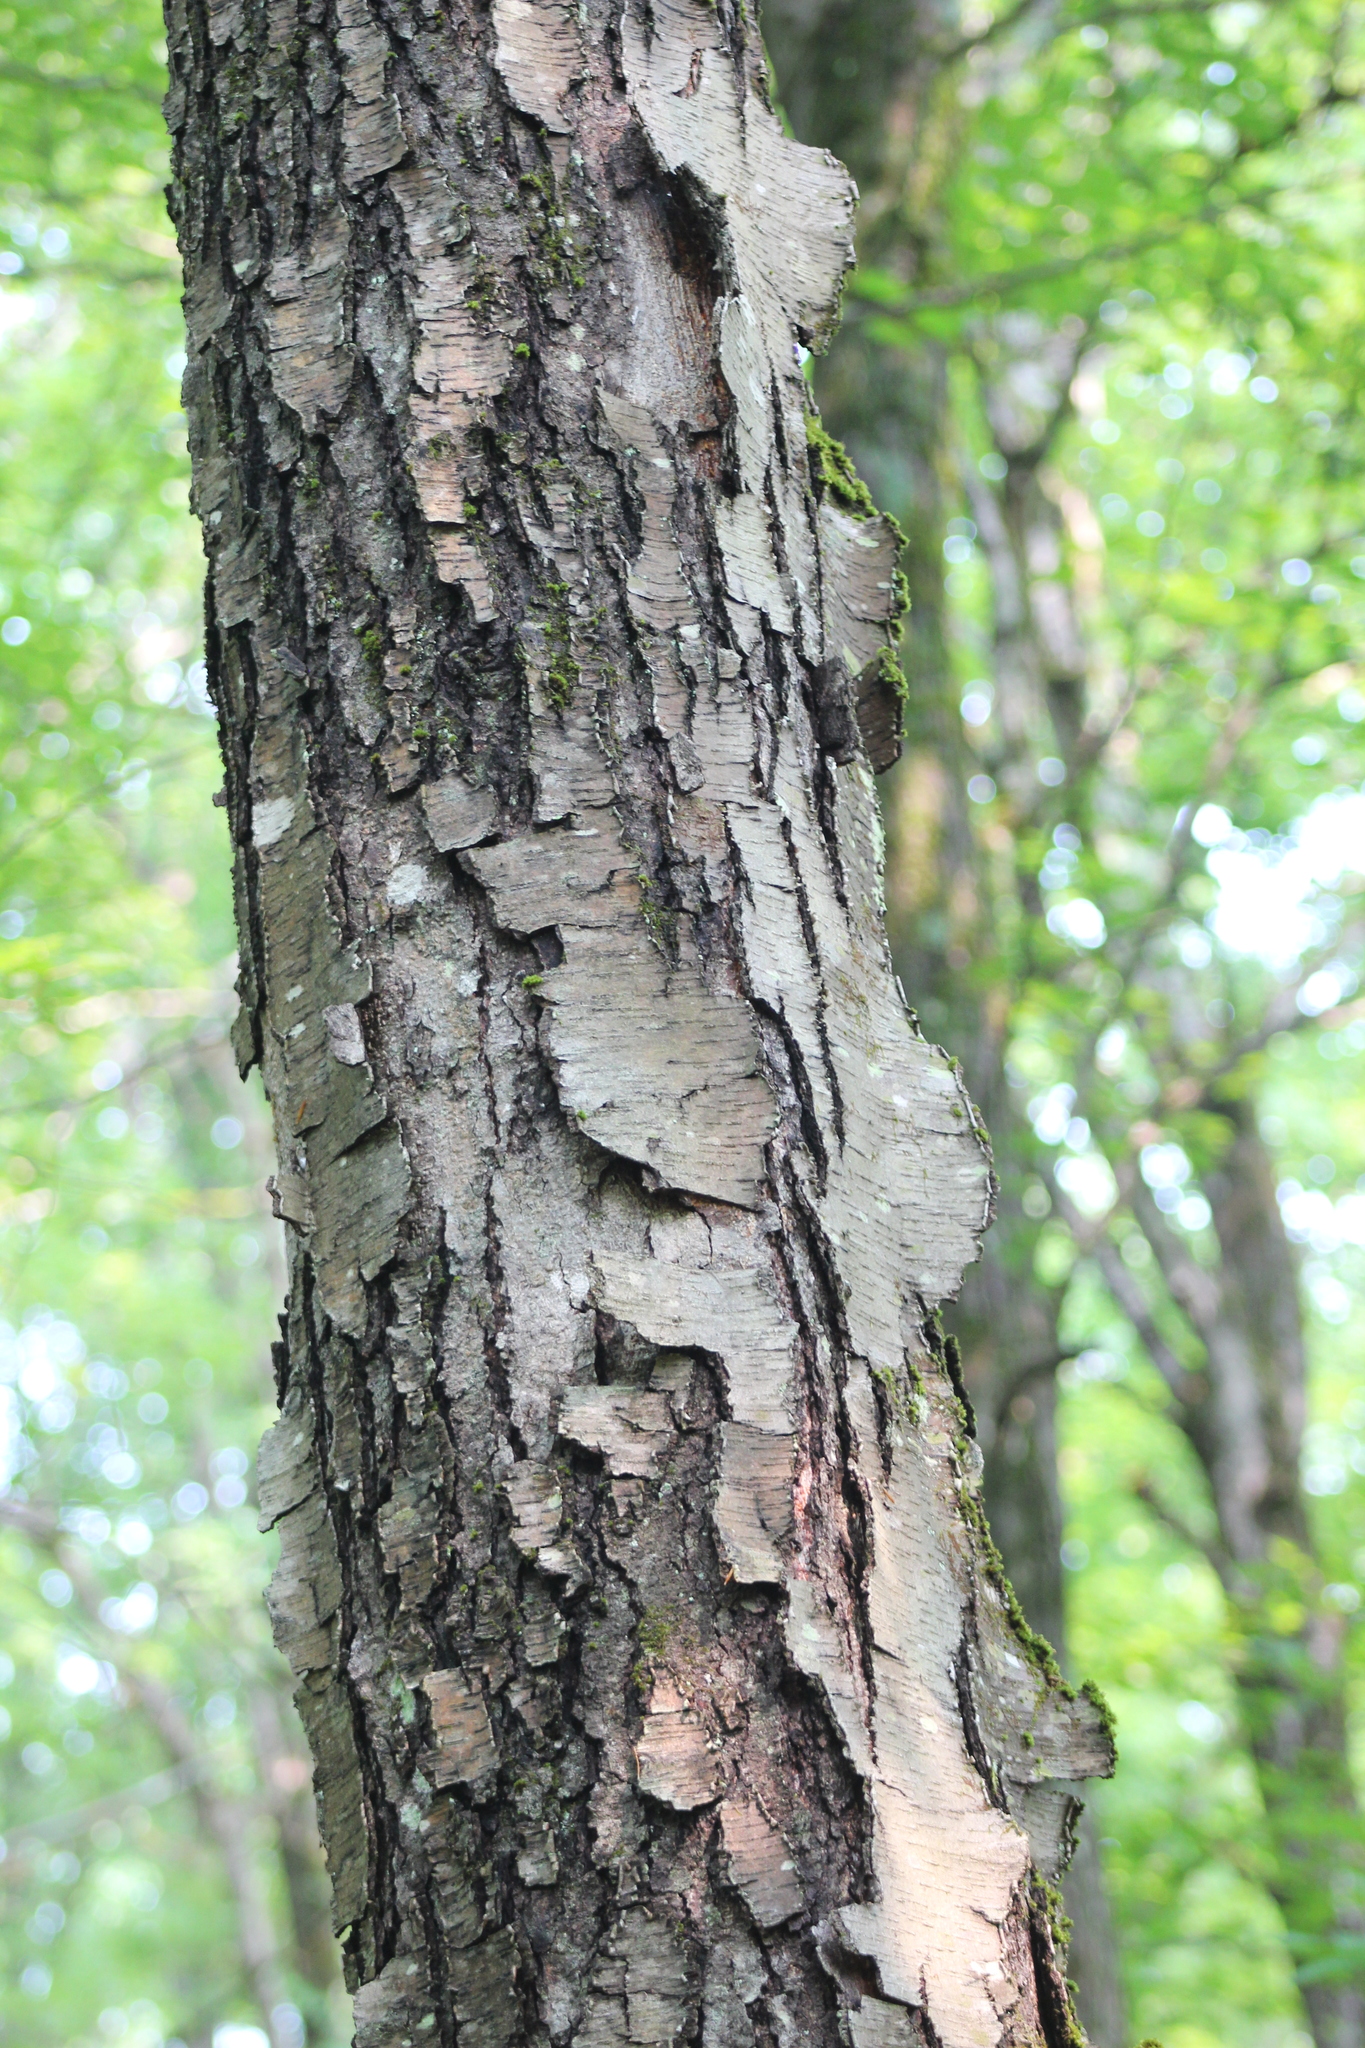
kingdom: Plantae
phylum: Tracheophyta
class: Magnoliopsida
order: Fagales
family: Betulaceae
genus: Betula
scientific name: Betula lenta
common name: Black birch
